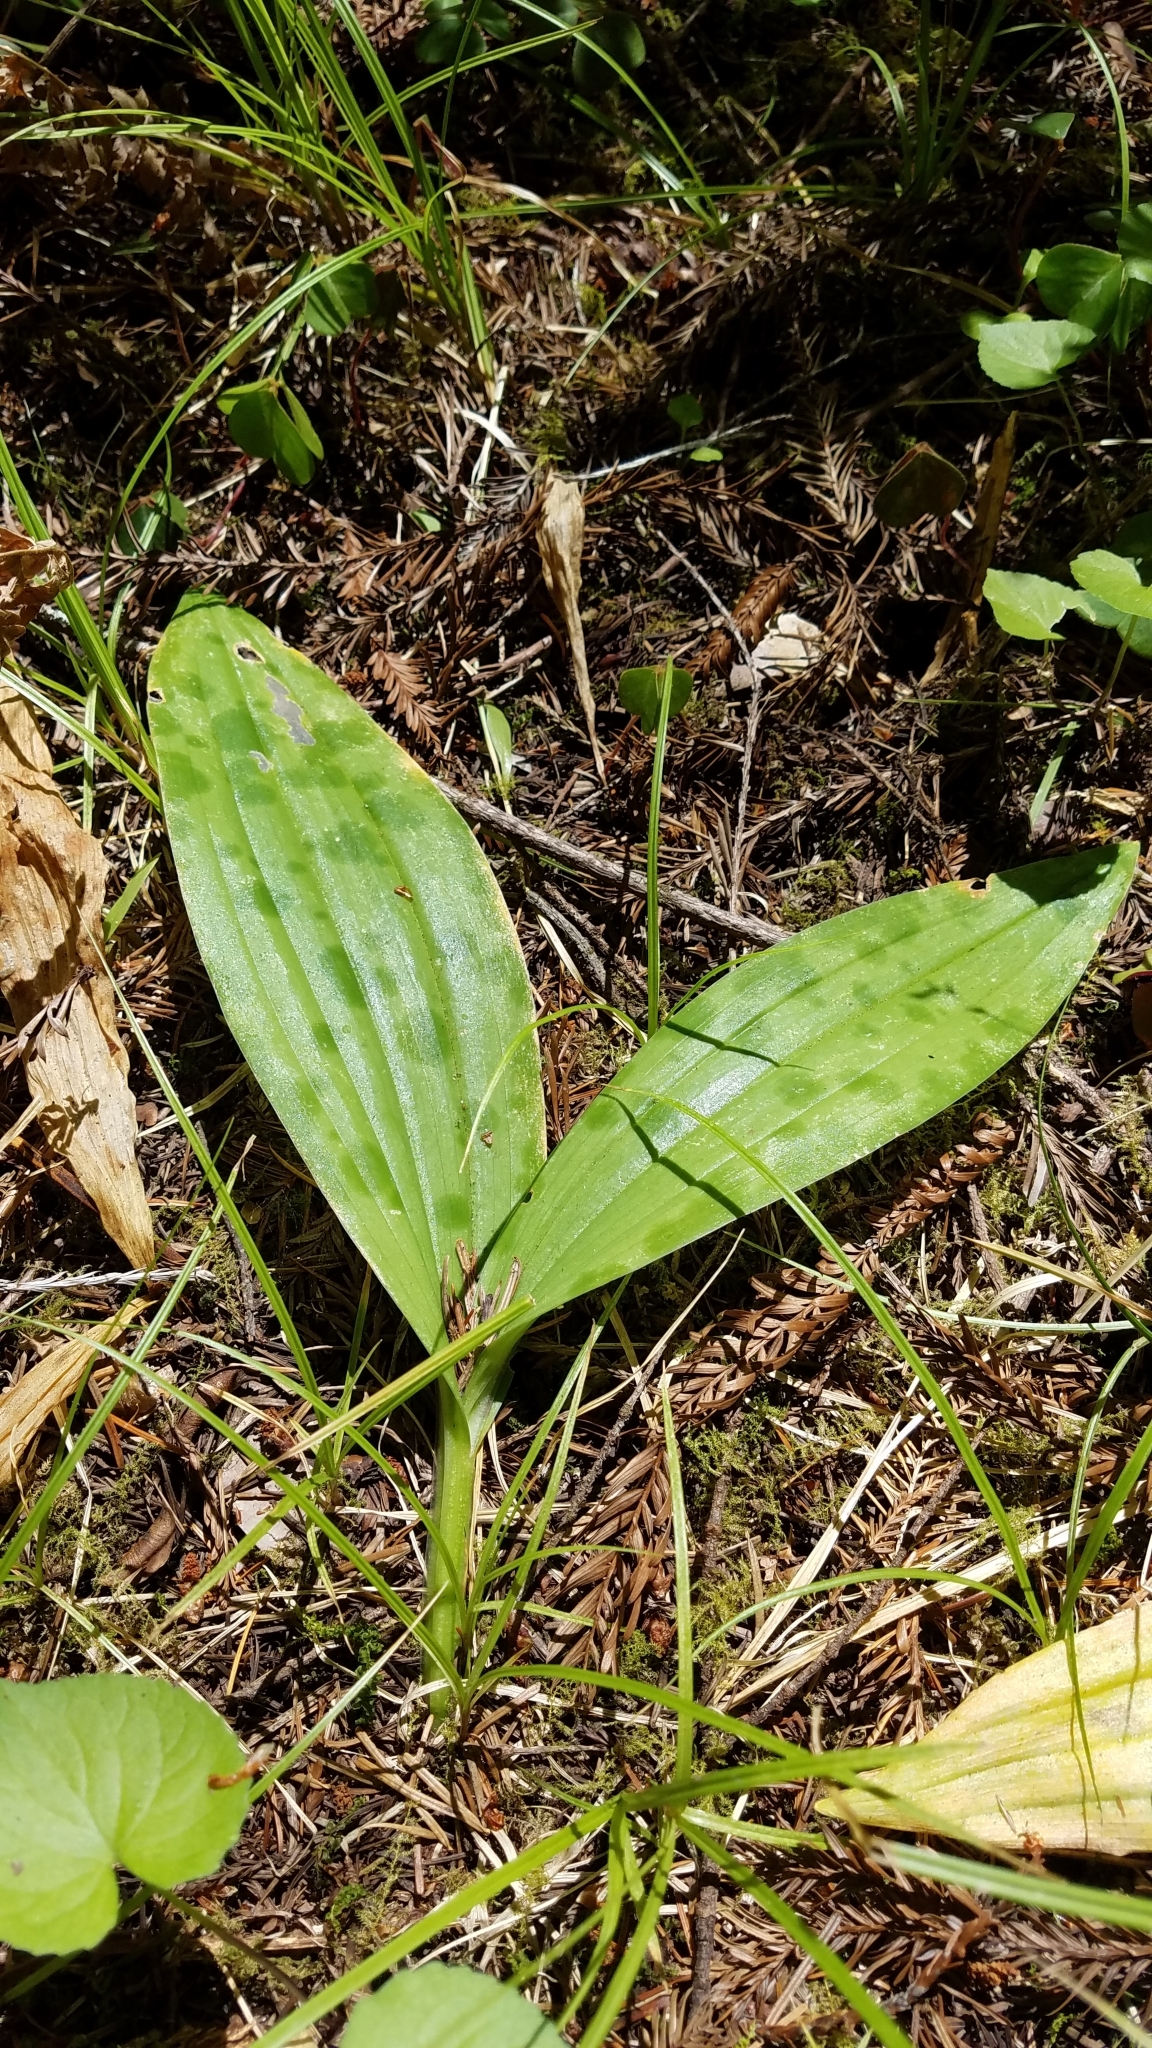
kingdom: Plantae
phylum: Tracheophyta
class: Liliopsida
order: Liliales
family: Liliaceae
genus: Scoliopus
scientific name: Scoliopus bigelovii
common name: Foetid adder's-tongue
